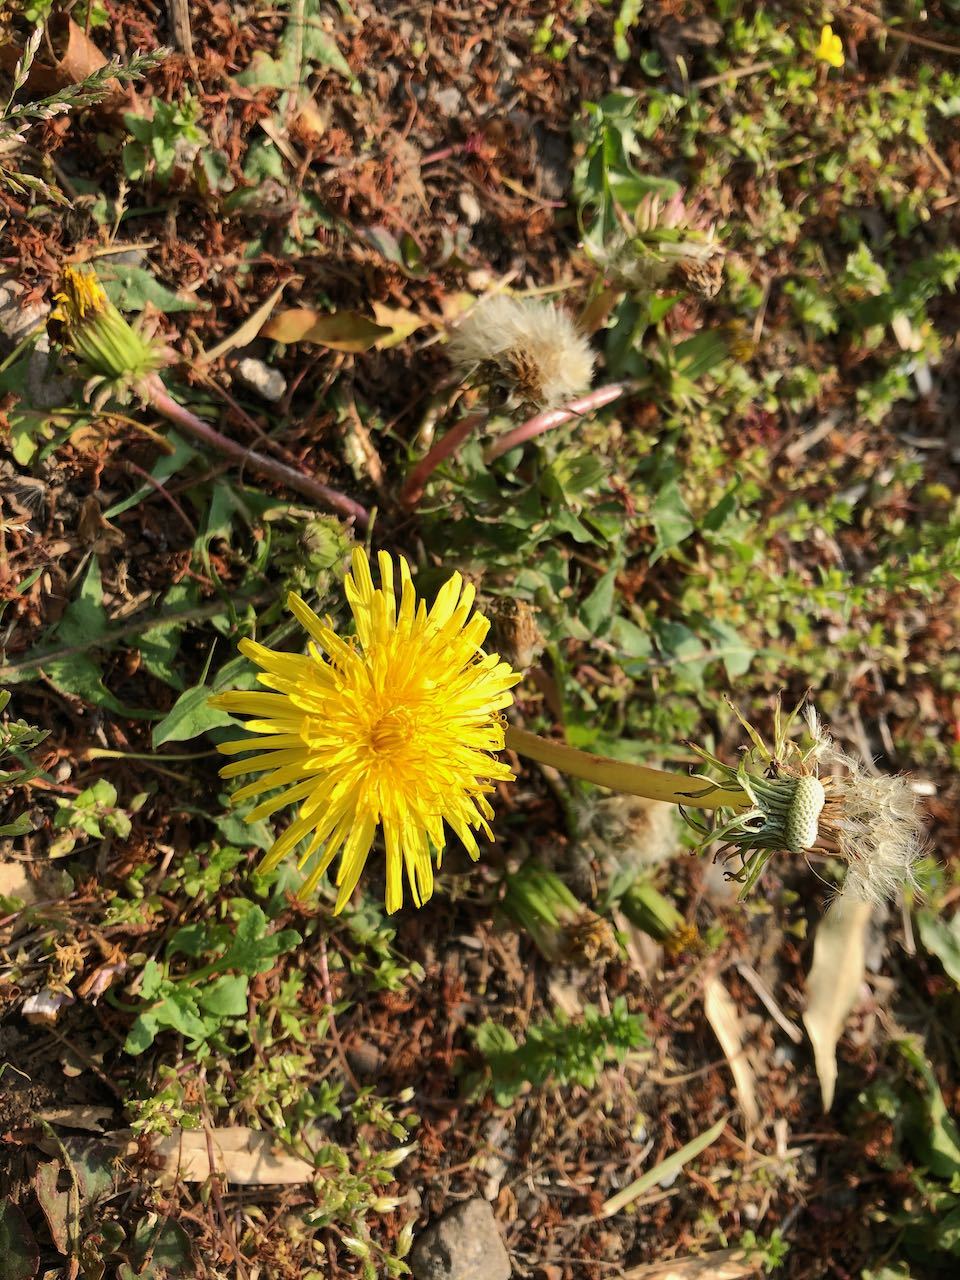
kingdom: Plantae
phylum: Tracheophyta
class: Magnoliopsida
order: Asterales
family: Asteraceae
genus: Taraxacum
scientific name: Taraxacum officinale
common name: Common dandelion
